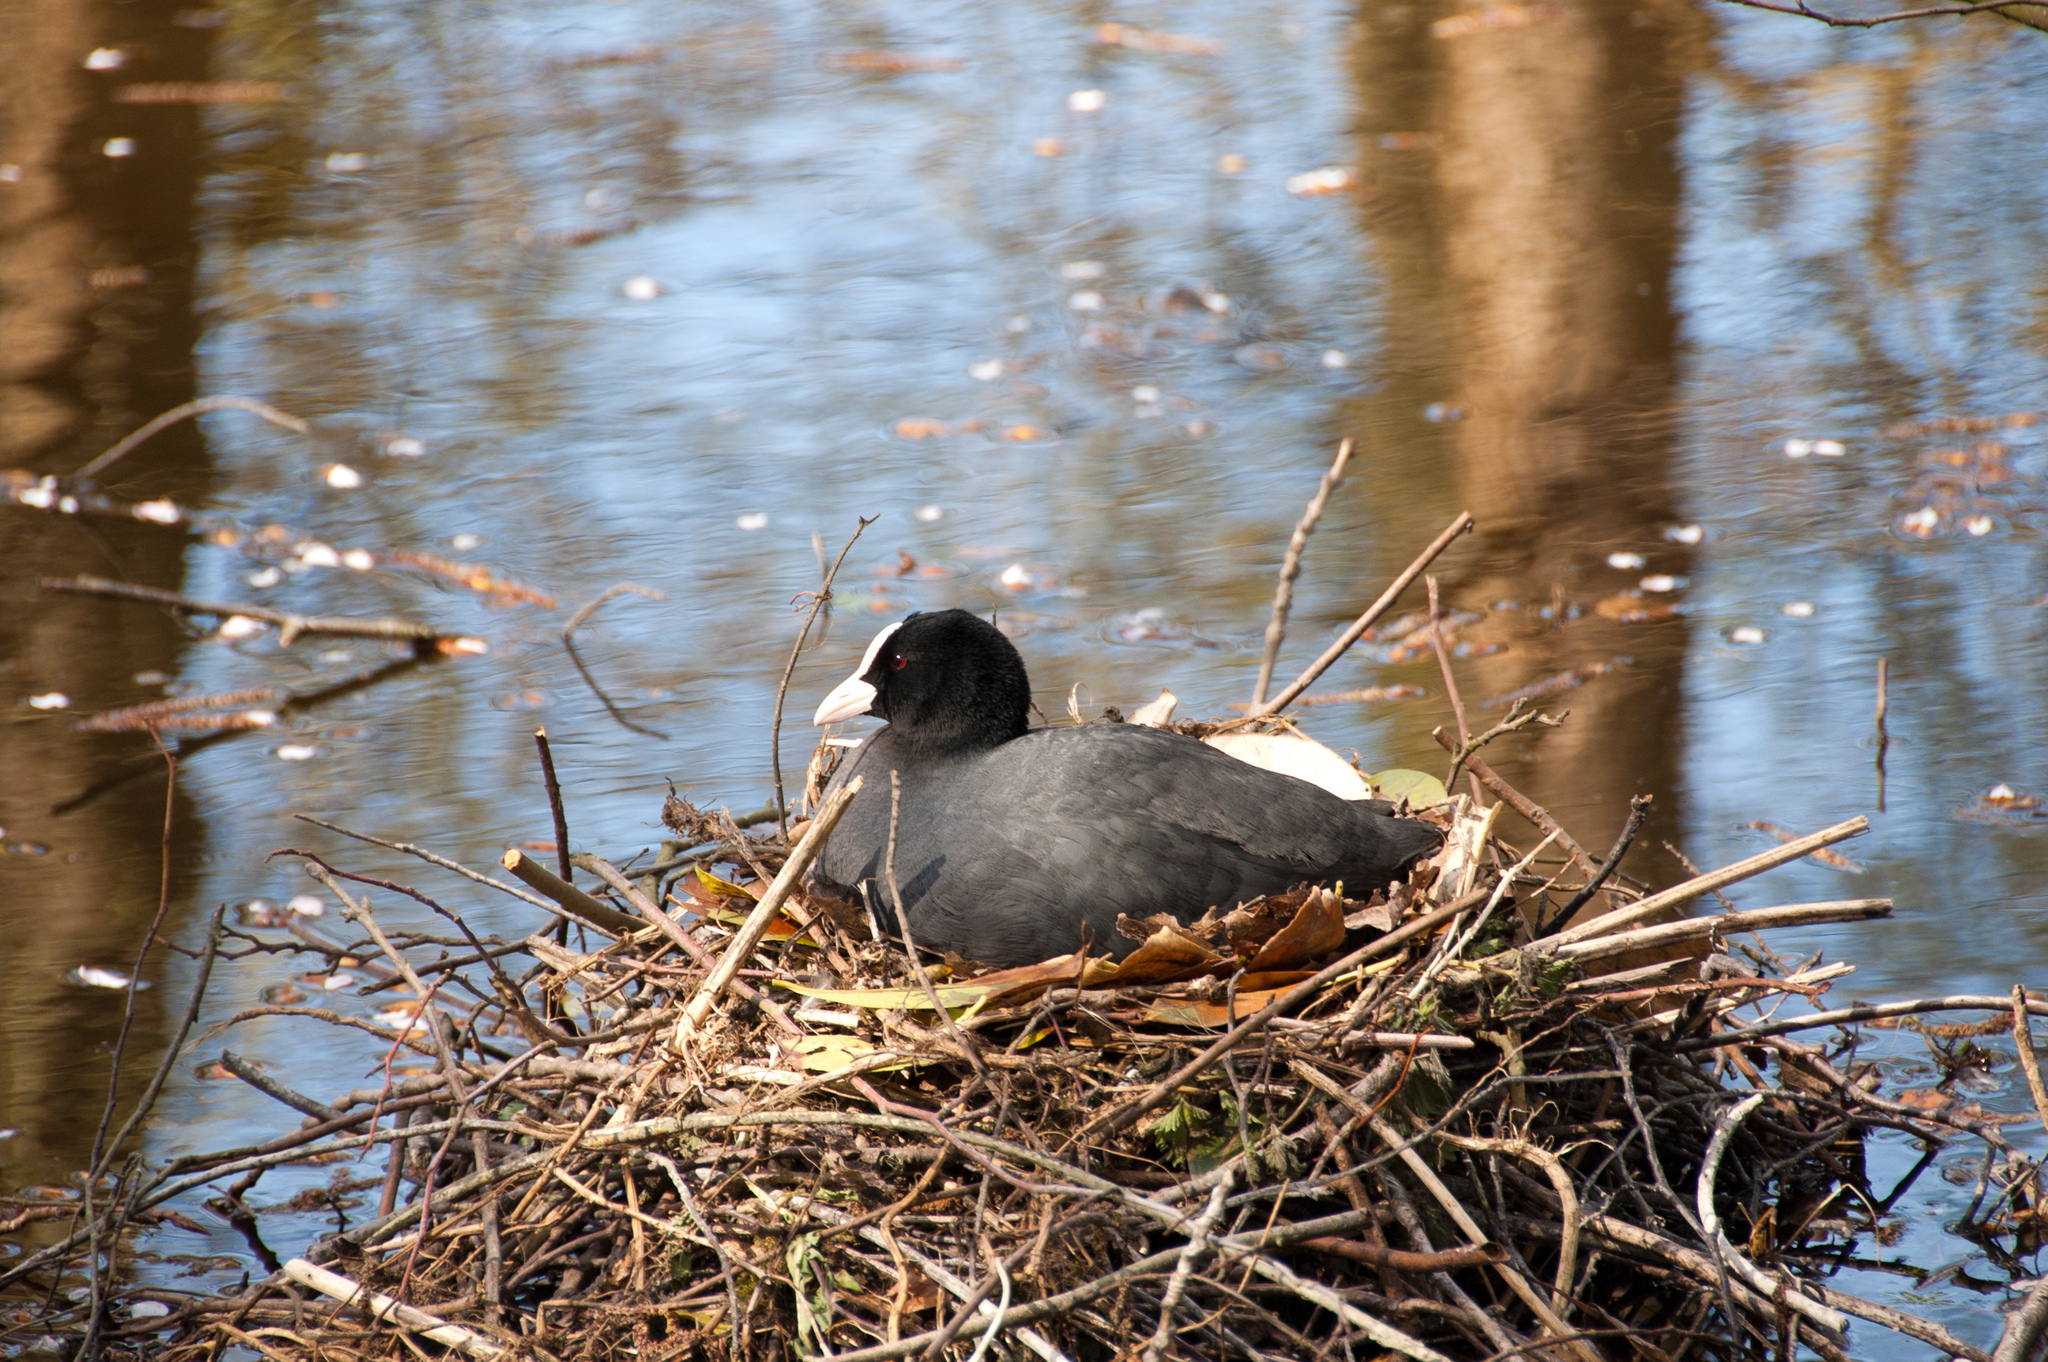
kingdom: Animalia
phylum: Chordata
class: Aves
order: Gruiformes
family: Rallidae
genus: Fulica
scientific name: Fulica atra
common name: Eurasian coot
